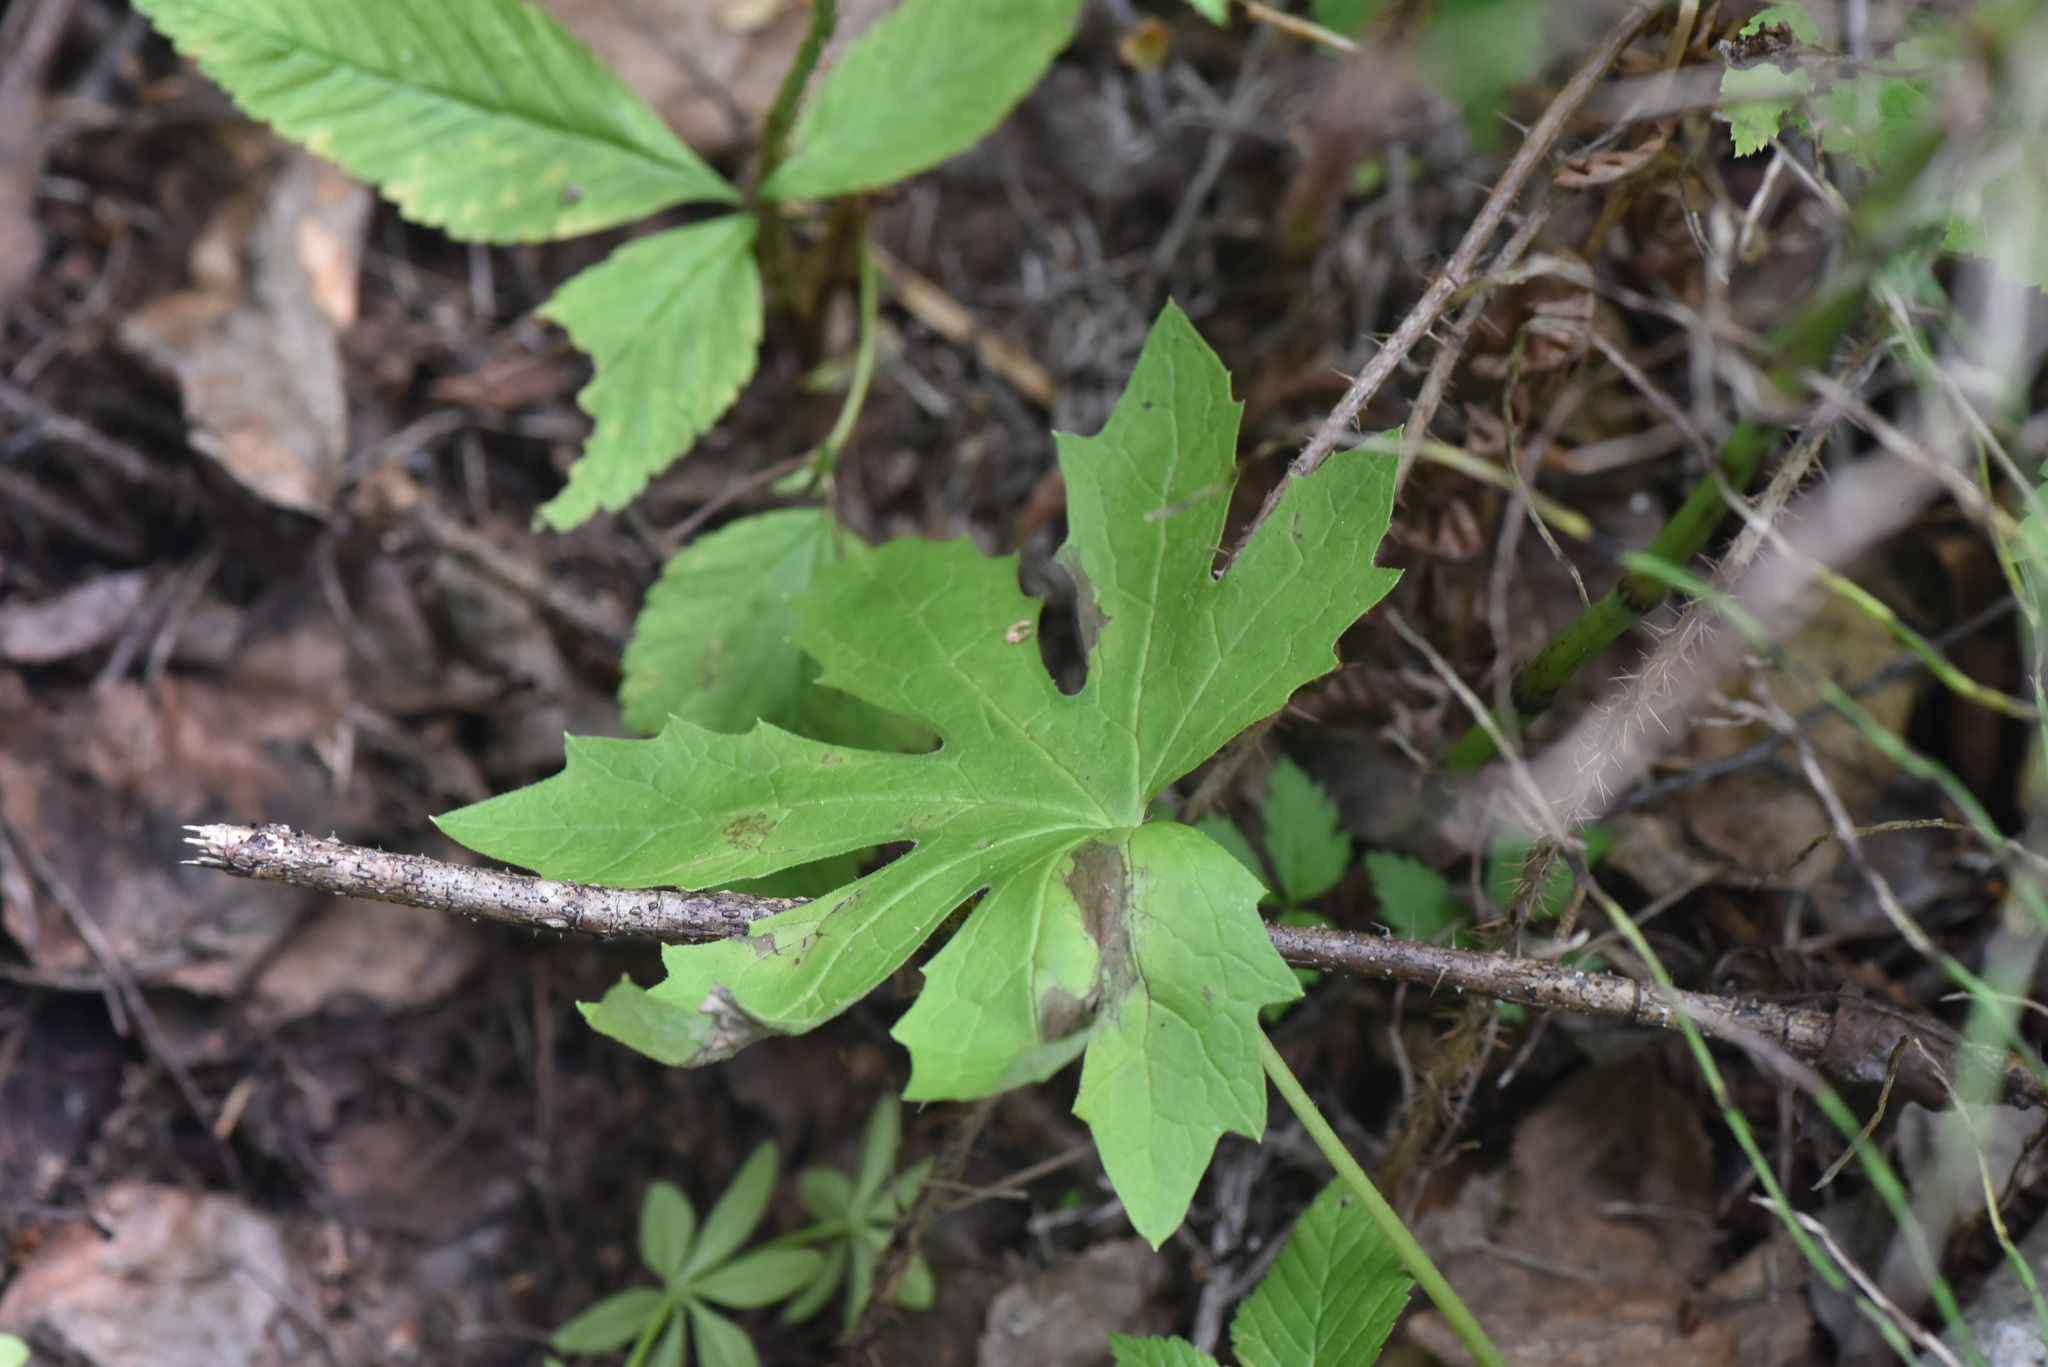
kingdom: Plantae
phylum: Tracheophyta
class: Magnoliopsida
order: Asterales
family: Asteraceae
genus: Petasites
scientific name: Petasites frigidus
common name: Arctic butterbur
